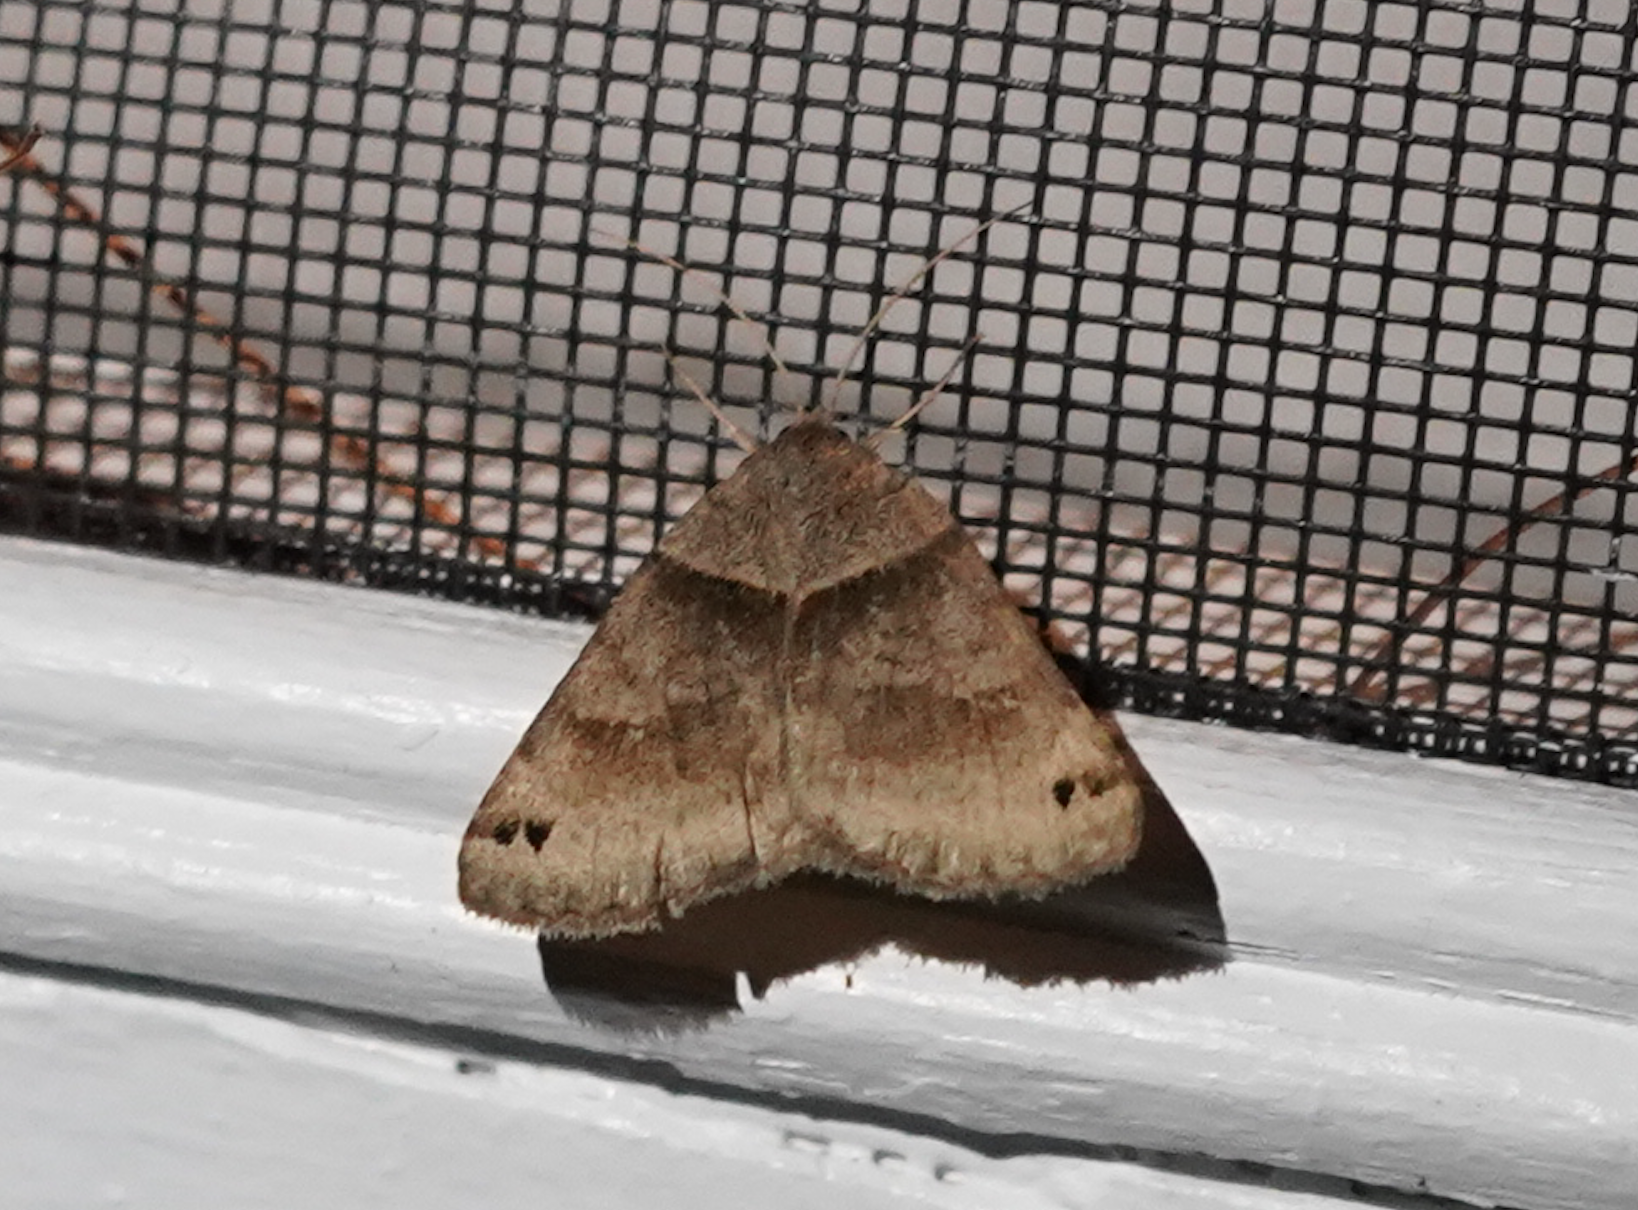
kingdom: Animalia
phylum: Arthropoda
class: Insecta
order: Lepidoptera
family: Erebidae
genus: Caenurgina
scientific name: Caenurgina crassiuscula
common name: Double-barred
